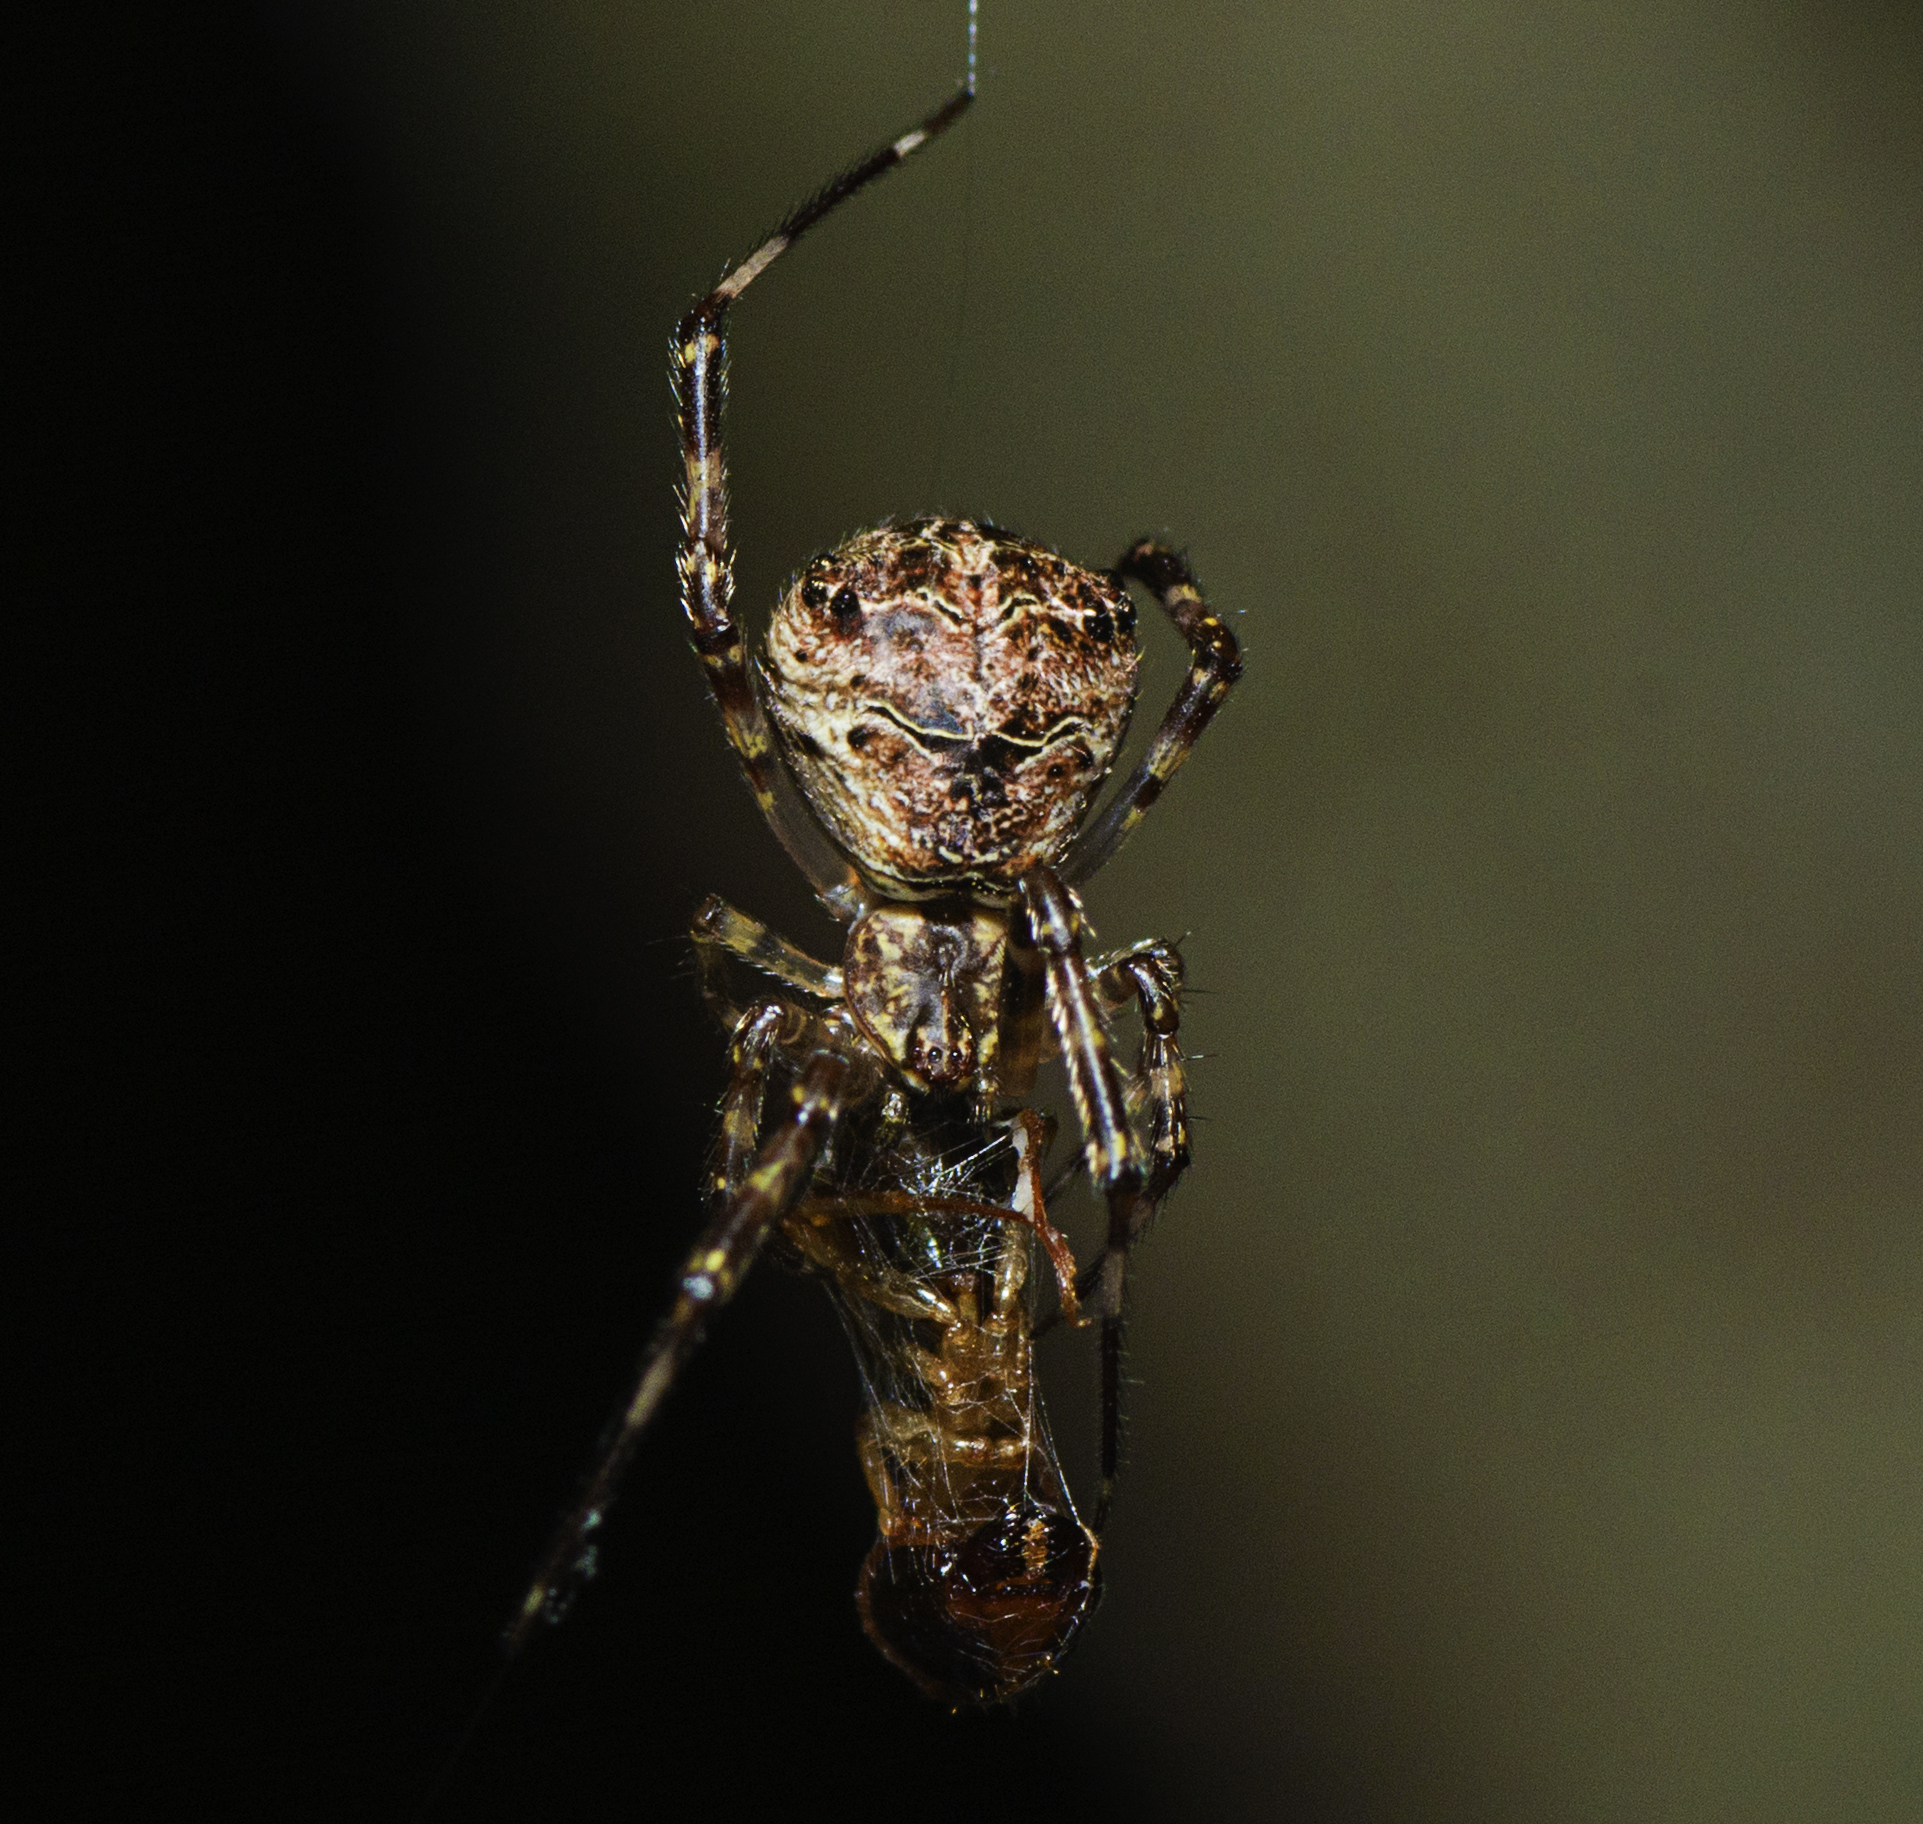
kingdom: Animalia
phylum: Arthropoda
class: Arachnida
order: Araneae
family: Theridiidae
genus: Janula
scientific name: Janula bicornis
